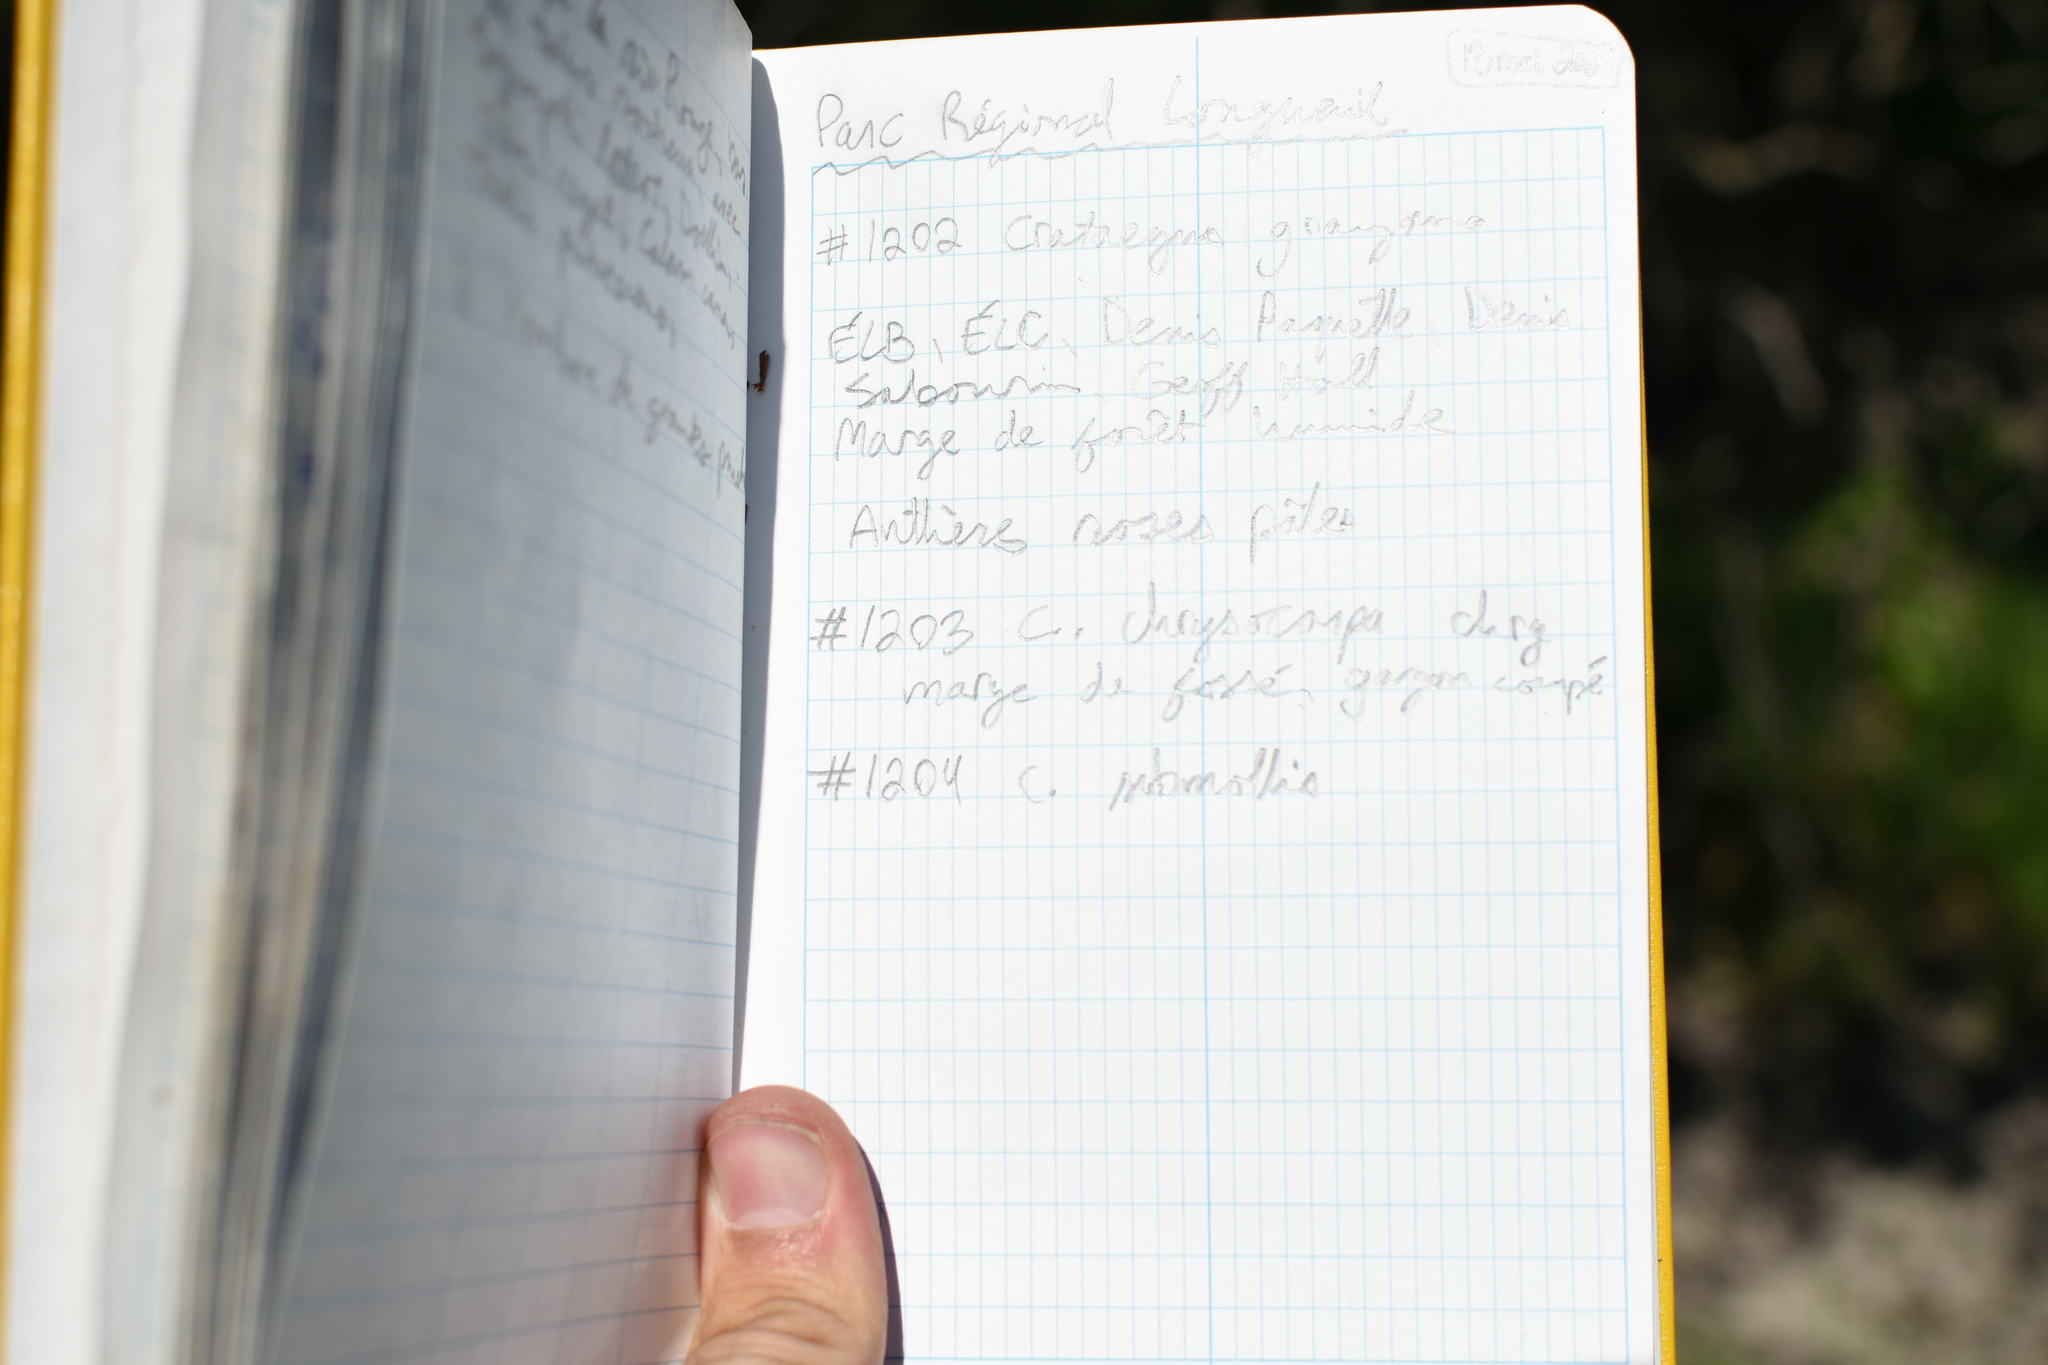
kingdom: Plantae
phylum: Tracheophyta
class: Magnoliopsida
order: Rosales
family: Rosaceae
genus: Crataegus
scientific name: Crataegus submollis
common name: Hairy cockspurthorn
